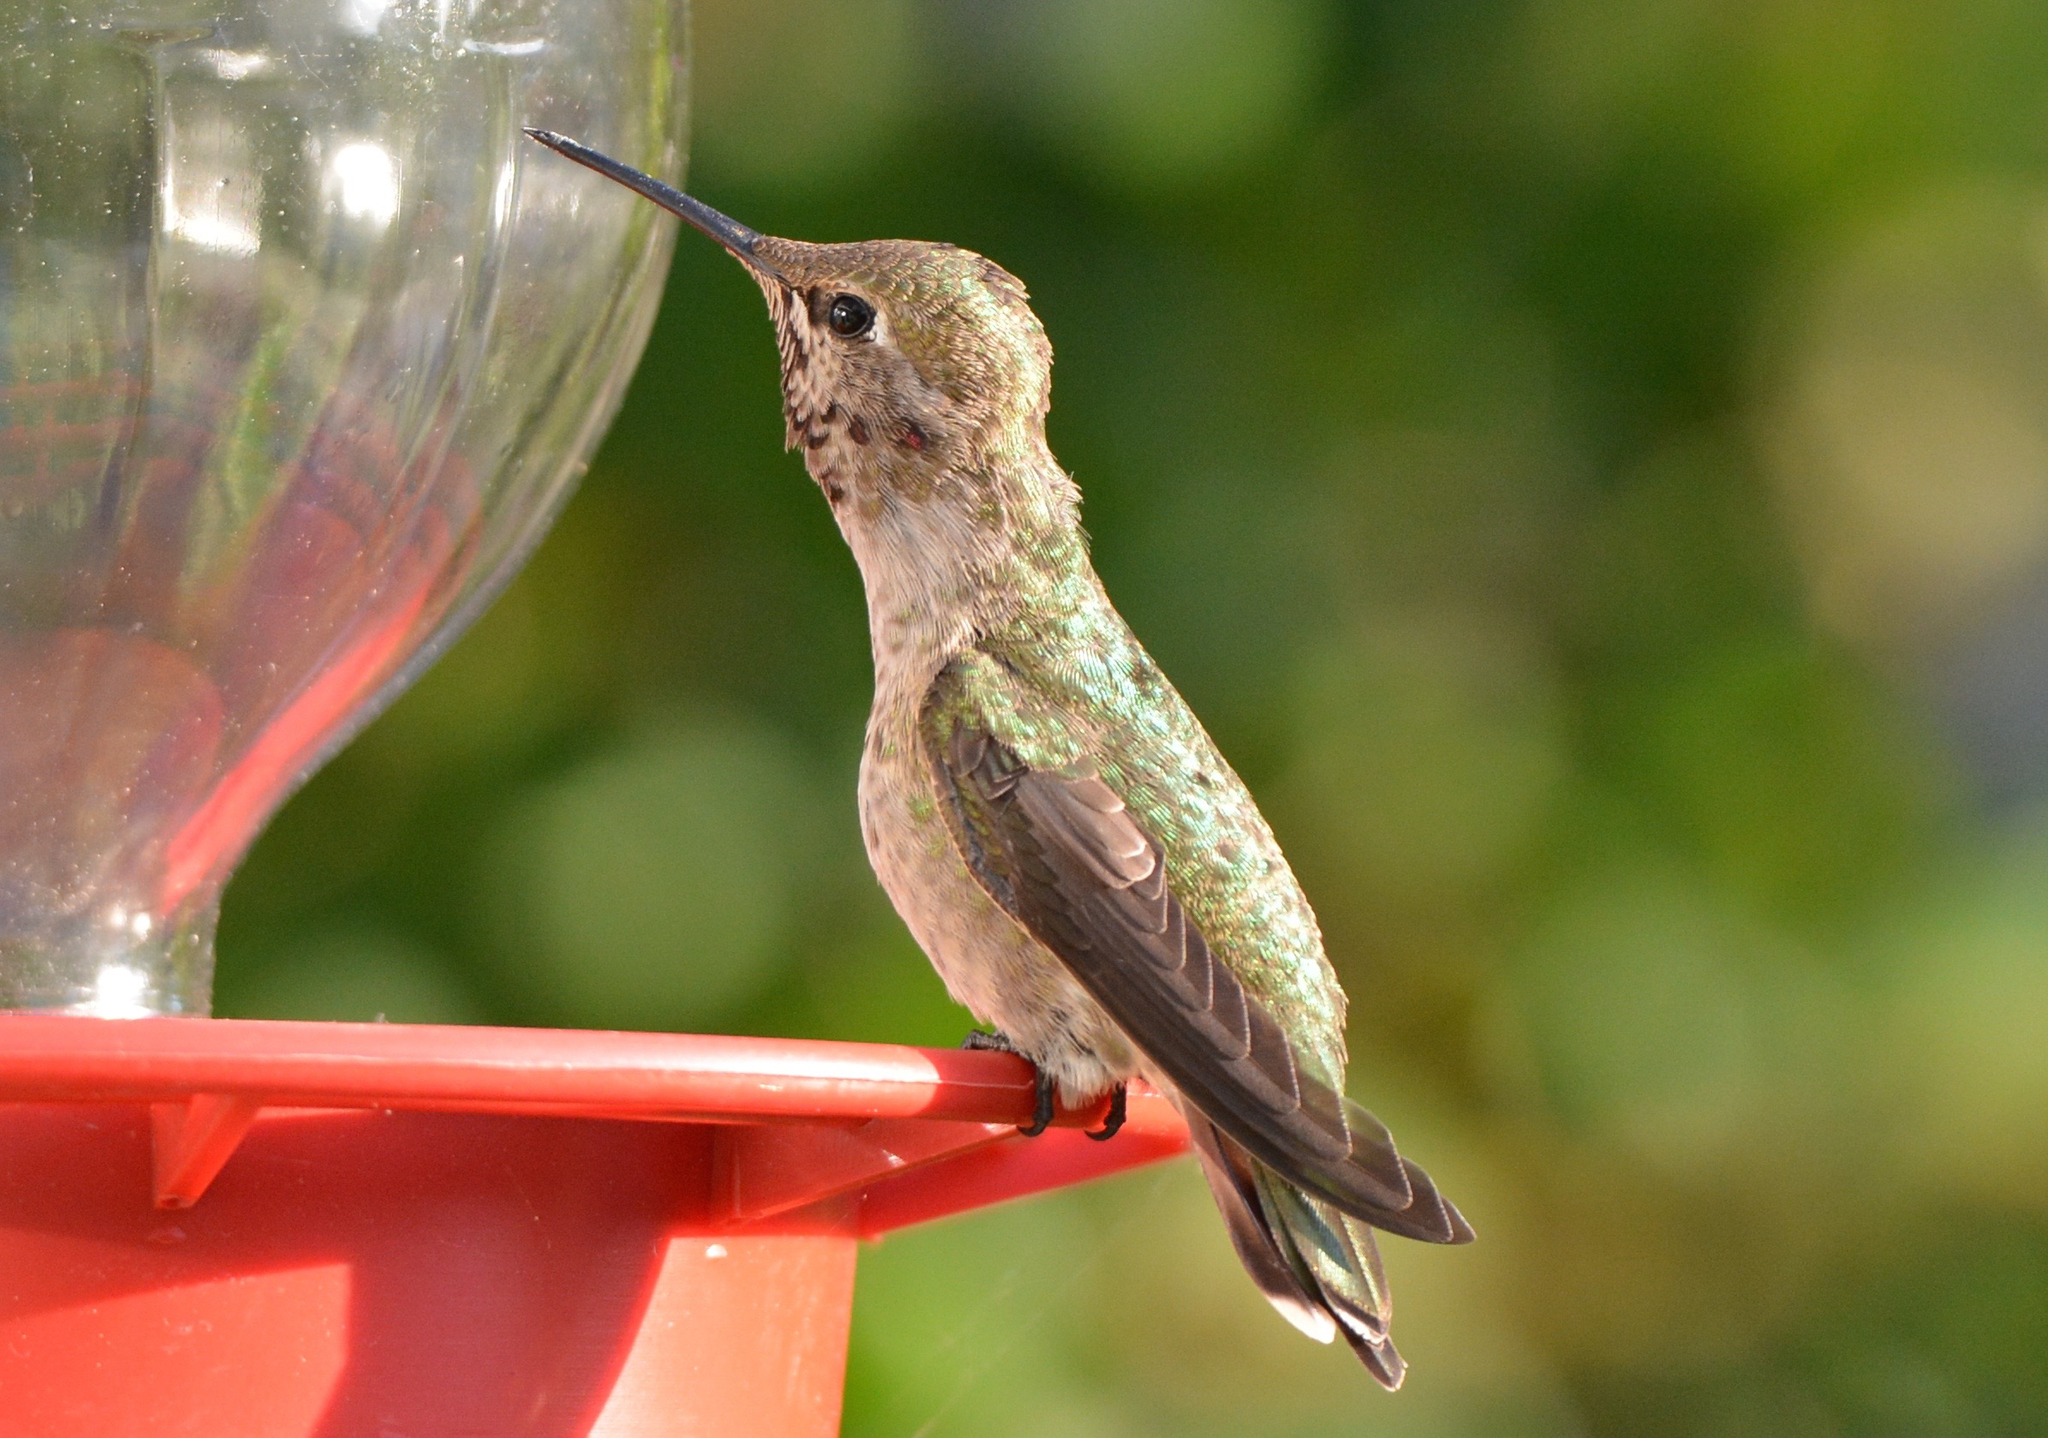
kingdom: Animalia
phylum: Chordata
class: Aves
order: Apodiformes
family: Trochilidae
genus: Calypte
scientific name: Calypte anna
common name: Anna's hummingbird
